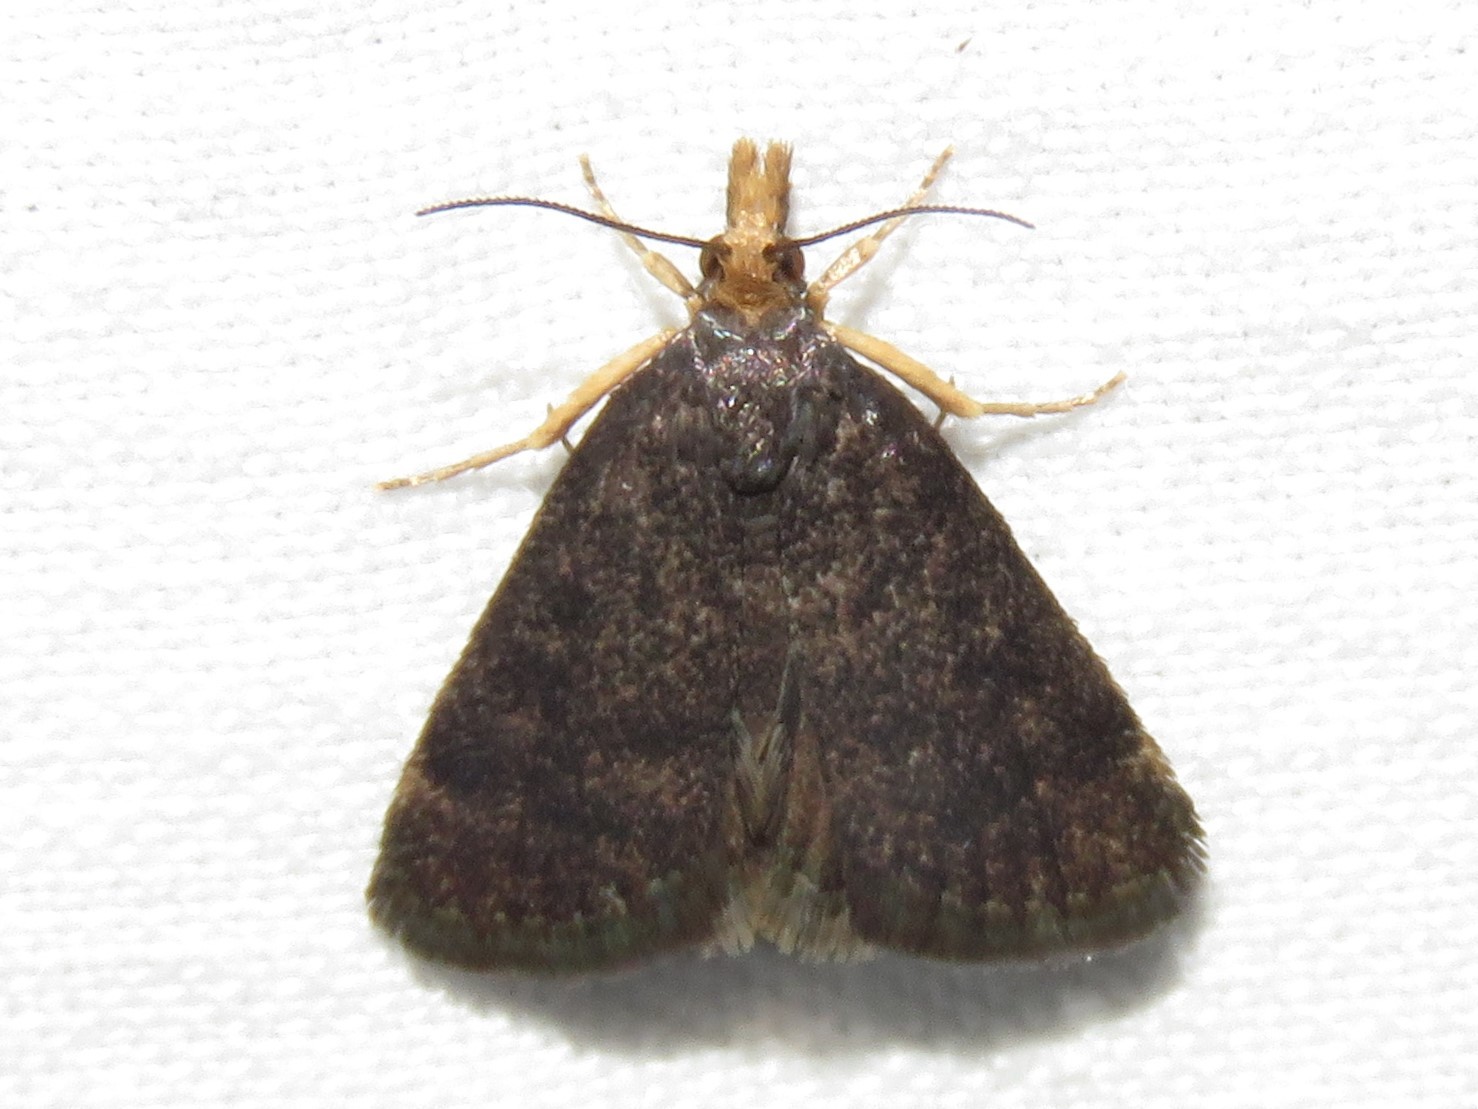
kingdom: Animalia
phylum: Arthropoda
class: Insecta
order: Lepidoptera
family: Crambidae
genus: Pyrausta
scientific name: Pyrausta merrickalis
